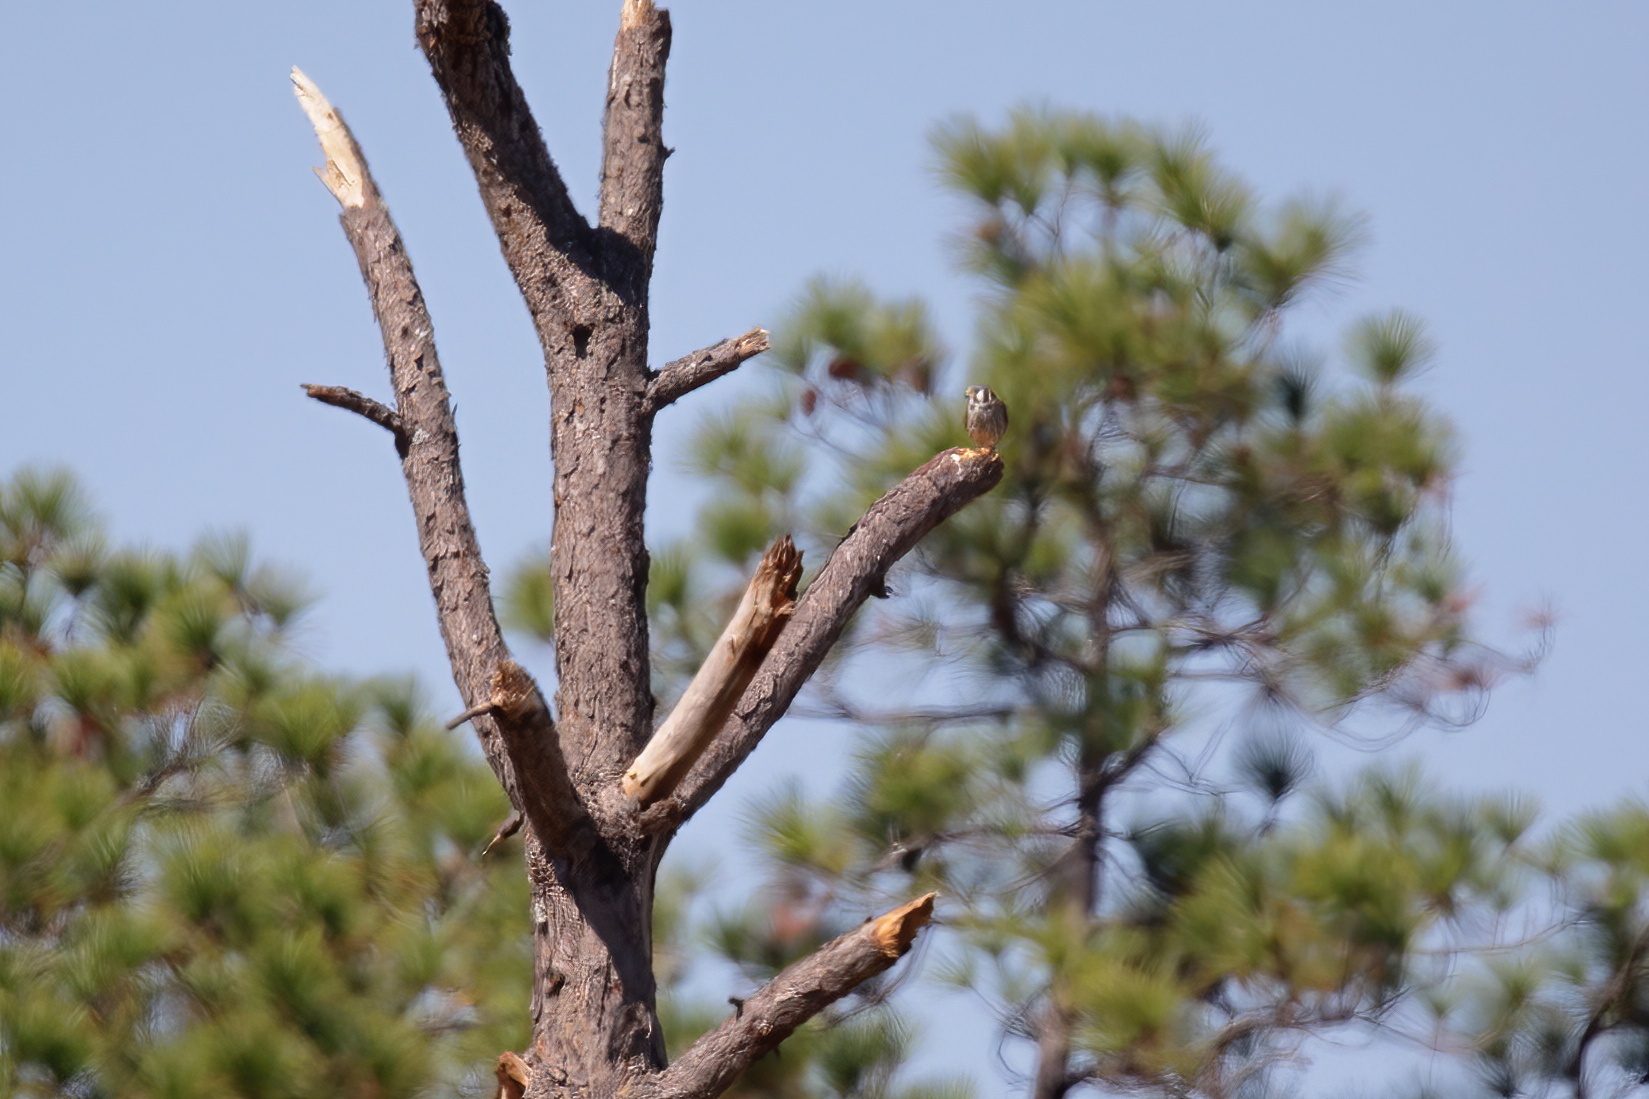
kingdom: Animalia
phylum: Chordata
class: Aves
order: Falconiformes
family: Falconidae
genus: Falco
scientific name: Falco sparverius
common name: American kestrel
